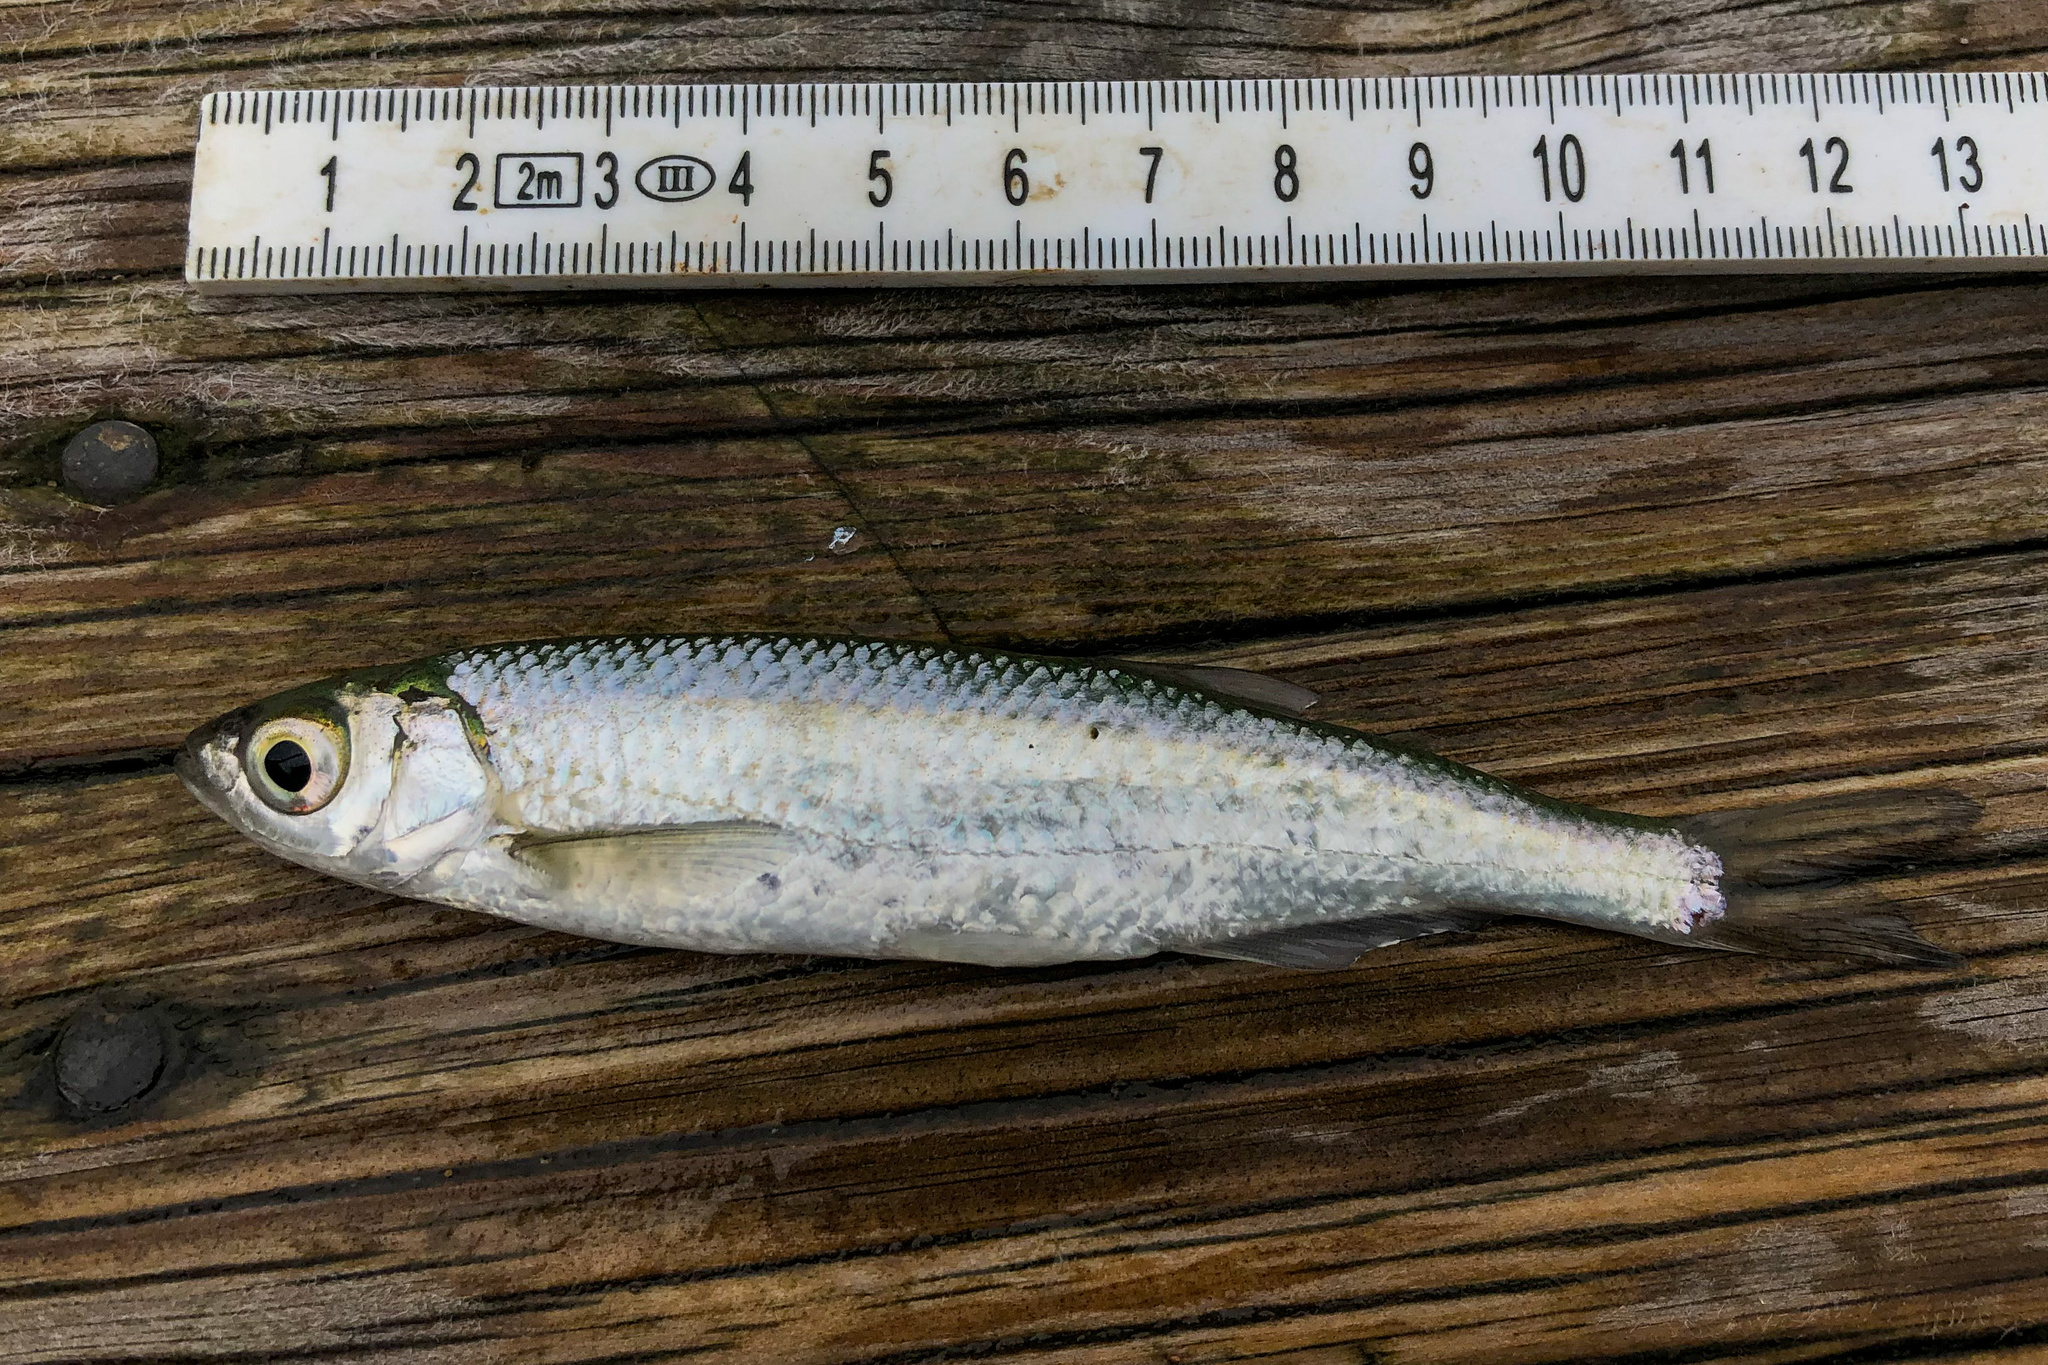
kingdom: Animalia
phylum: Chordata
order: Cypriniformes
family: Cyprinidae
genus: Alburnus
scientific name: Alburnus alburnus
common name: Bleak
